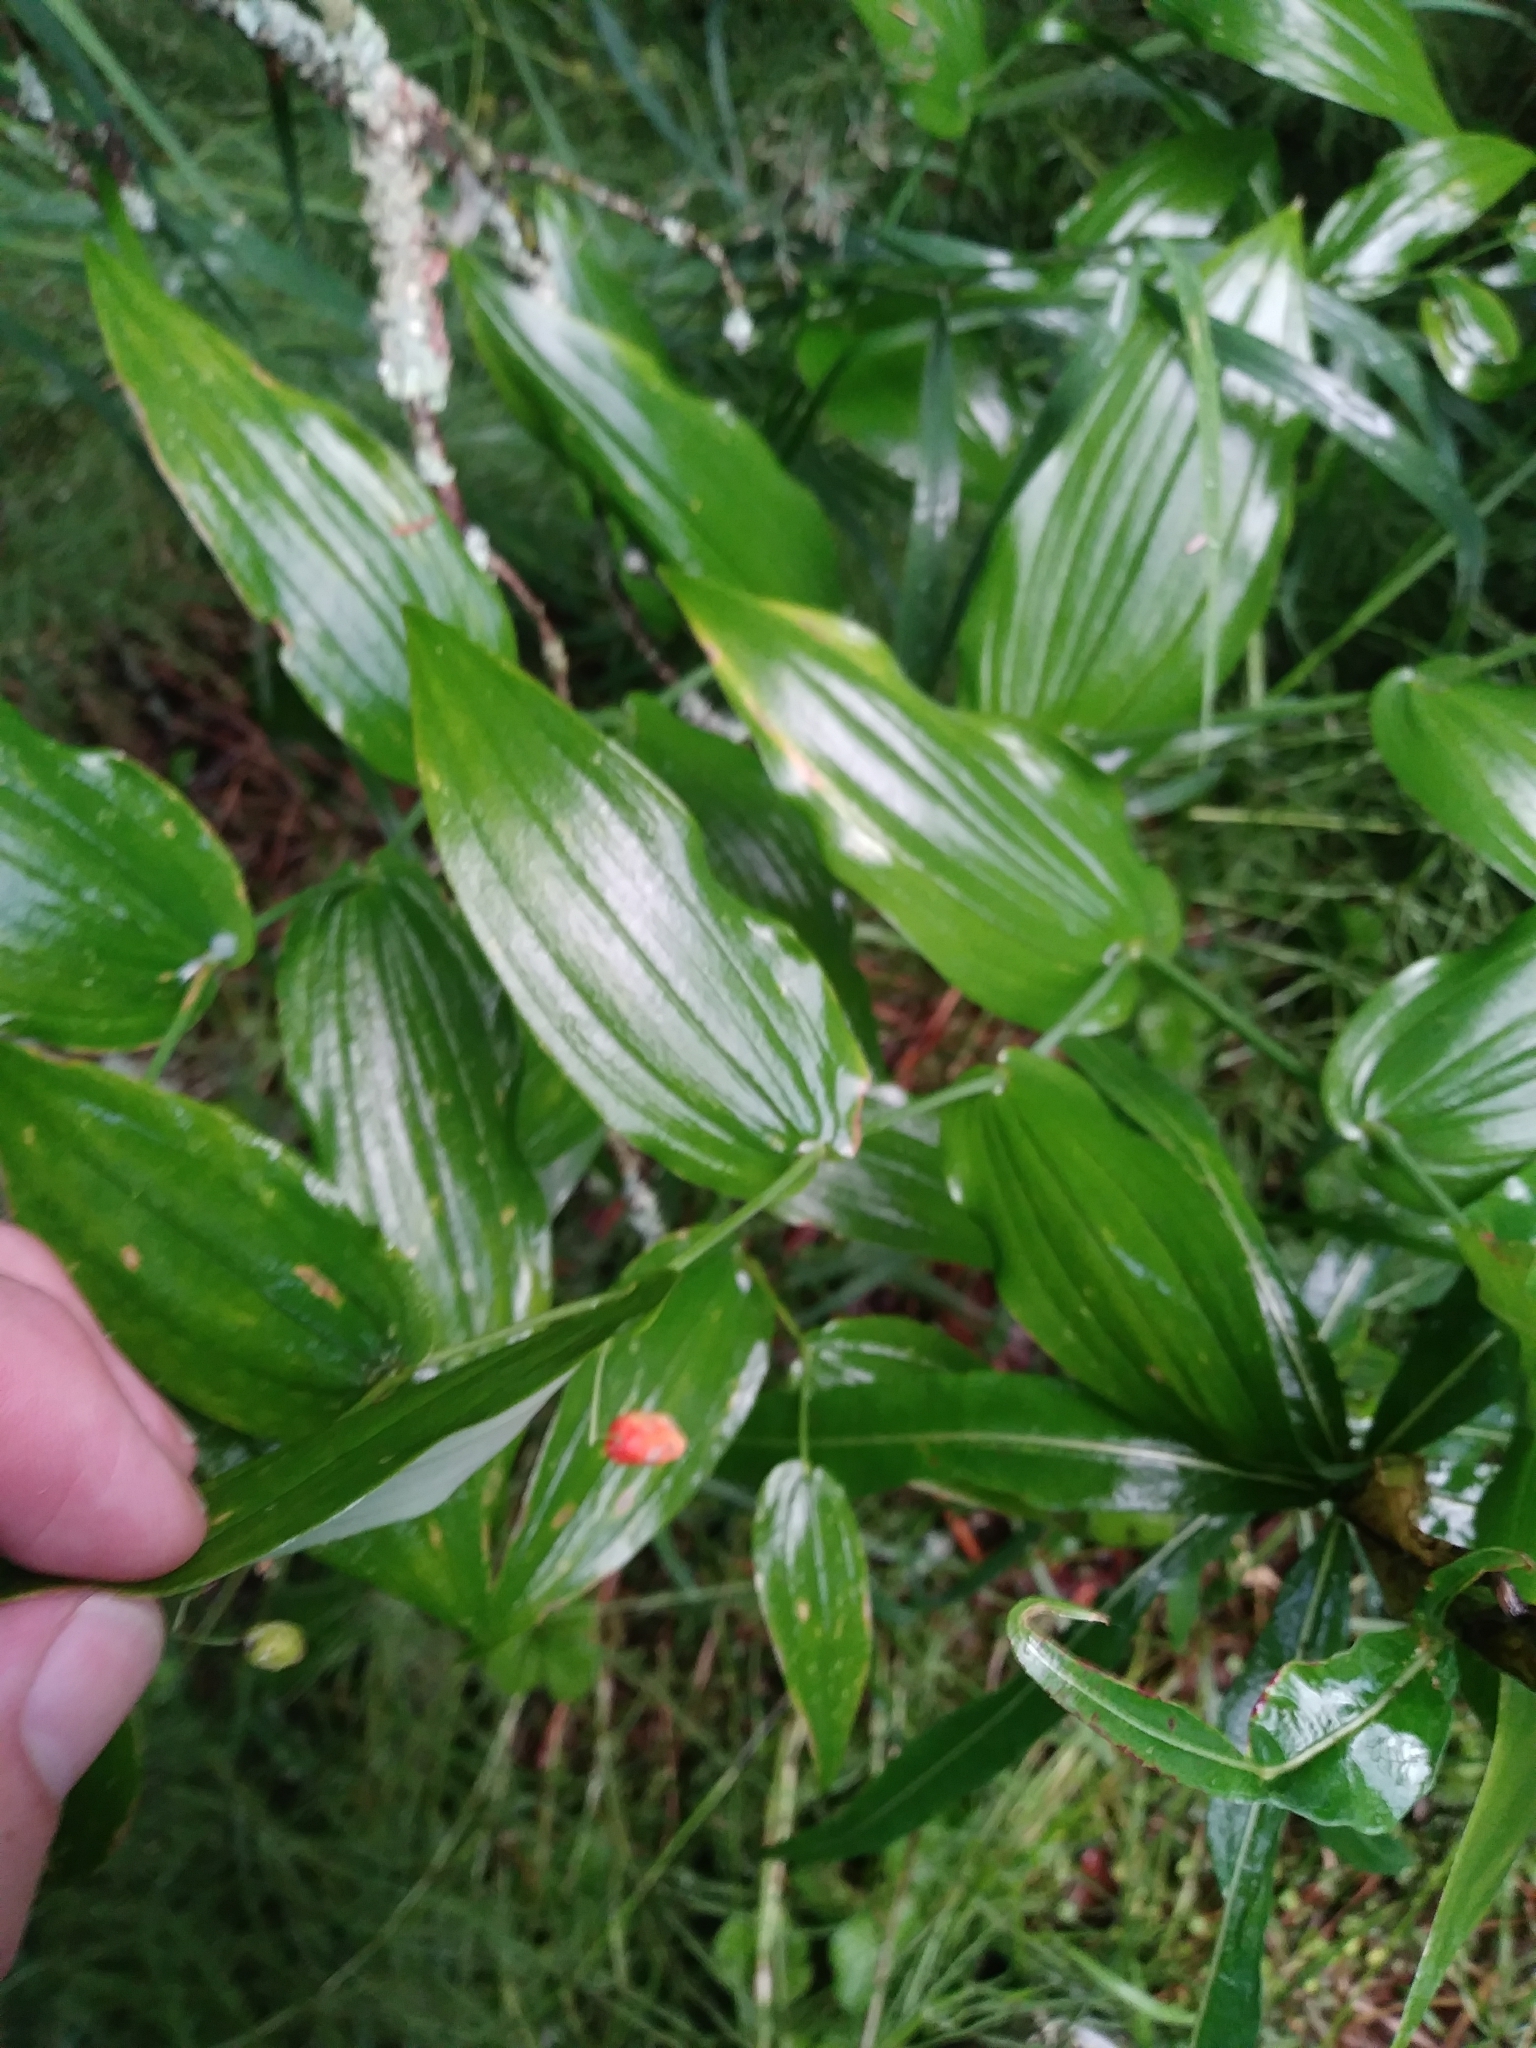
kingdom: Plantae
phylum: Tracheophyta
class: Liliopsida
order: Liliales
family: Liliaceae
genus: Streptopus
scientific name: Streptopus amplexifolius
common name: Clasp twisted stalk
